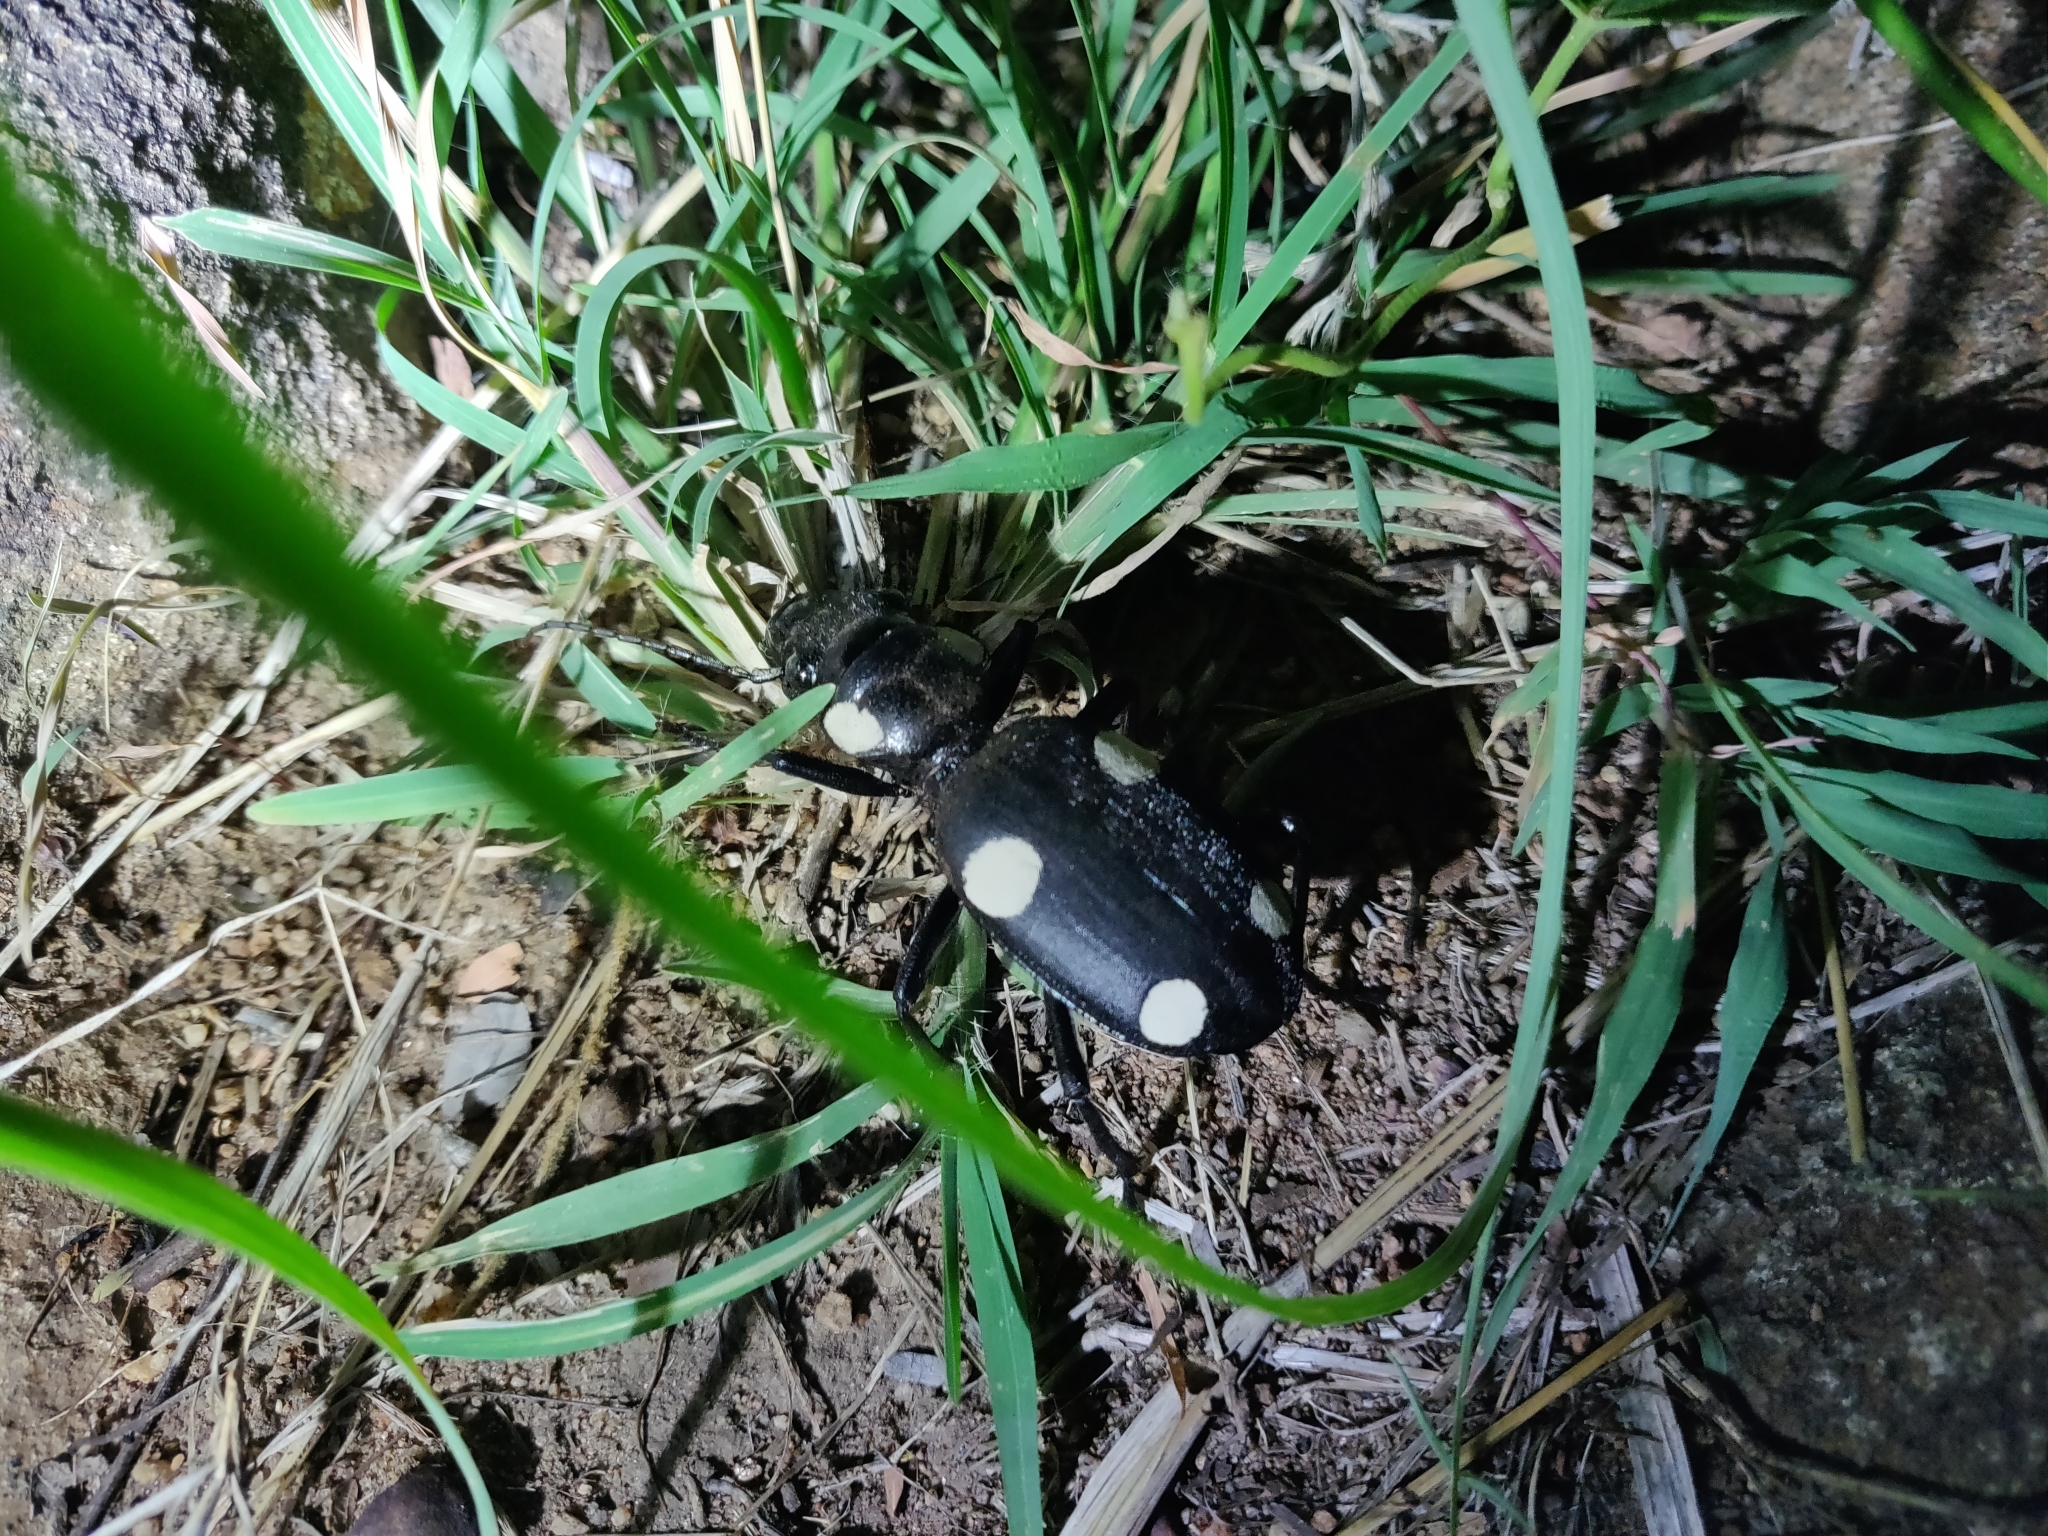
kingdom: Animalia
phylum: Arthropoda
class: Insecta
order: Coleoptera
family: Carabidae
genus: Anthia
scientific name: Anthia sexguttata
